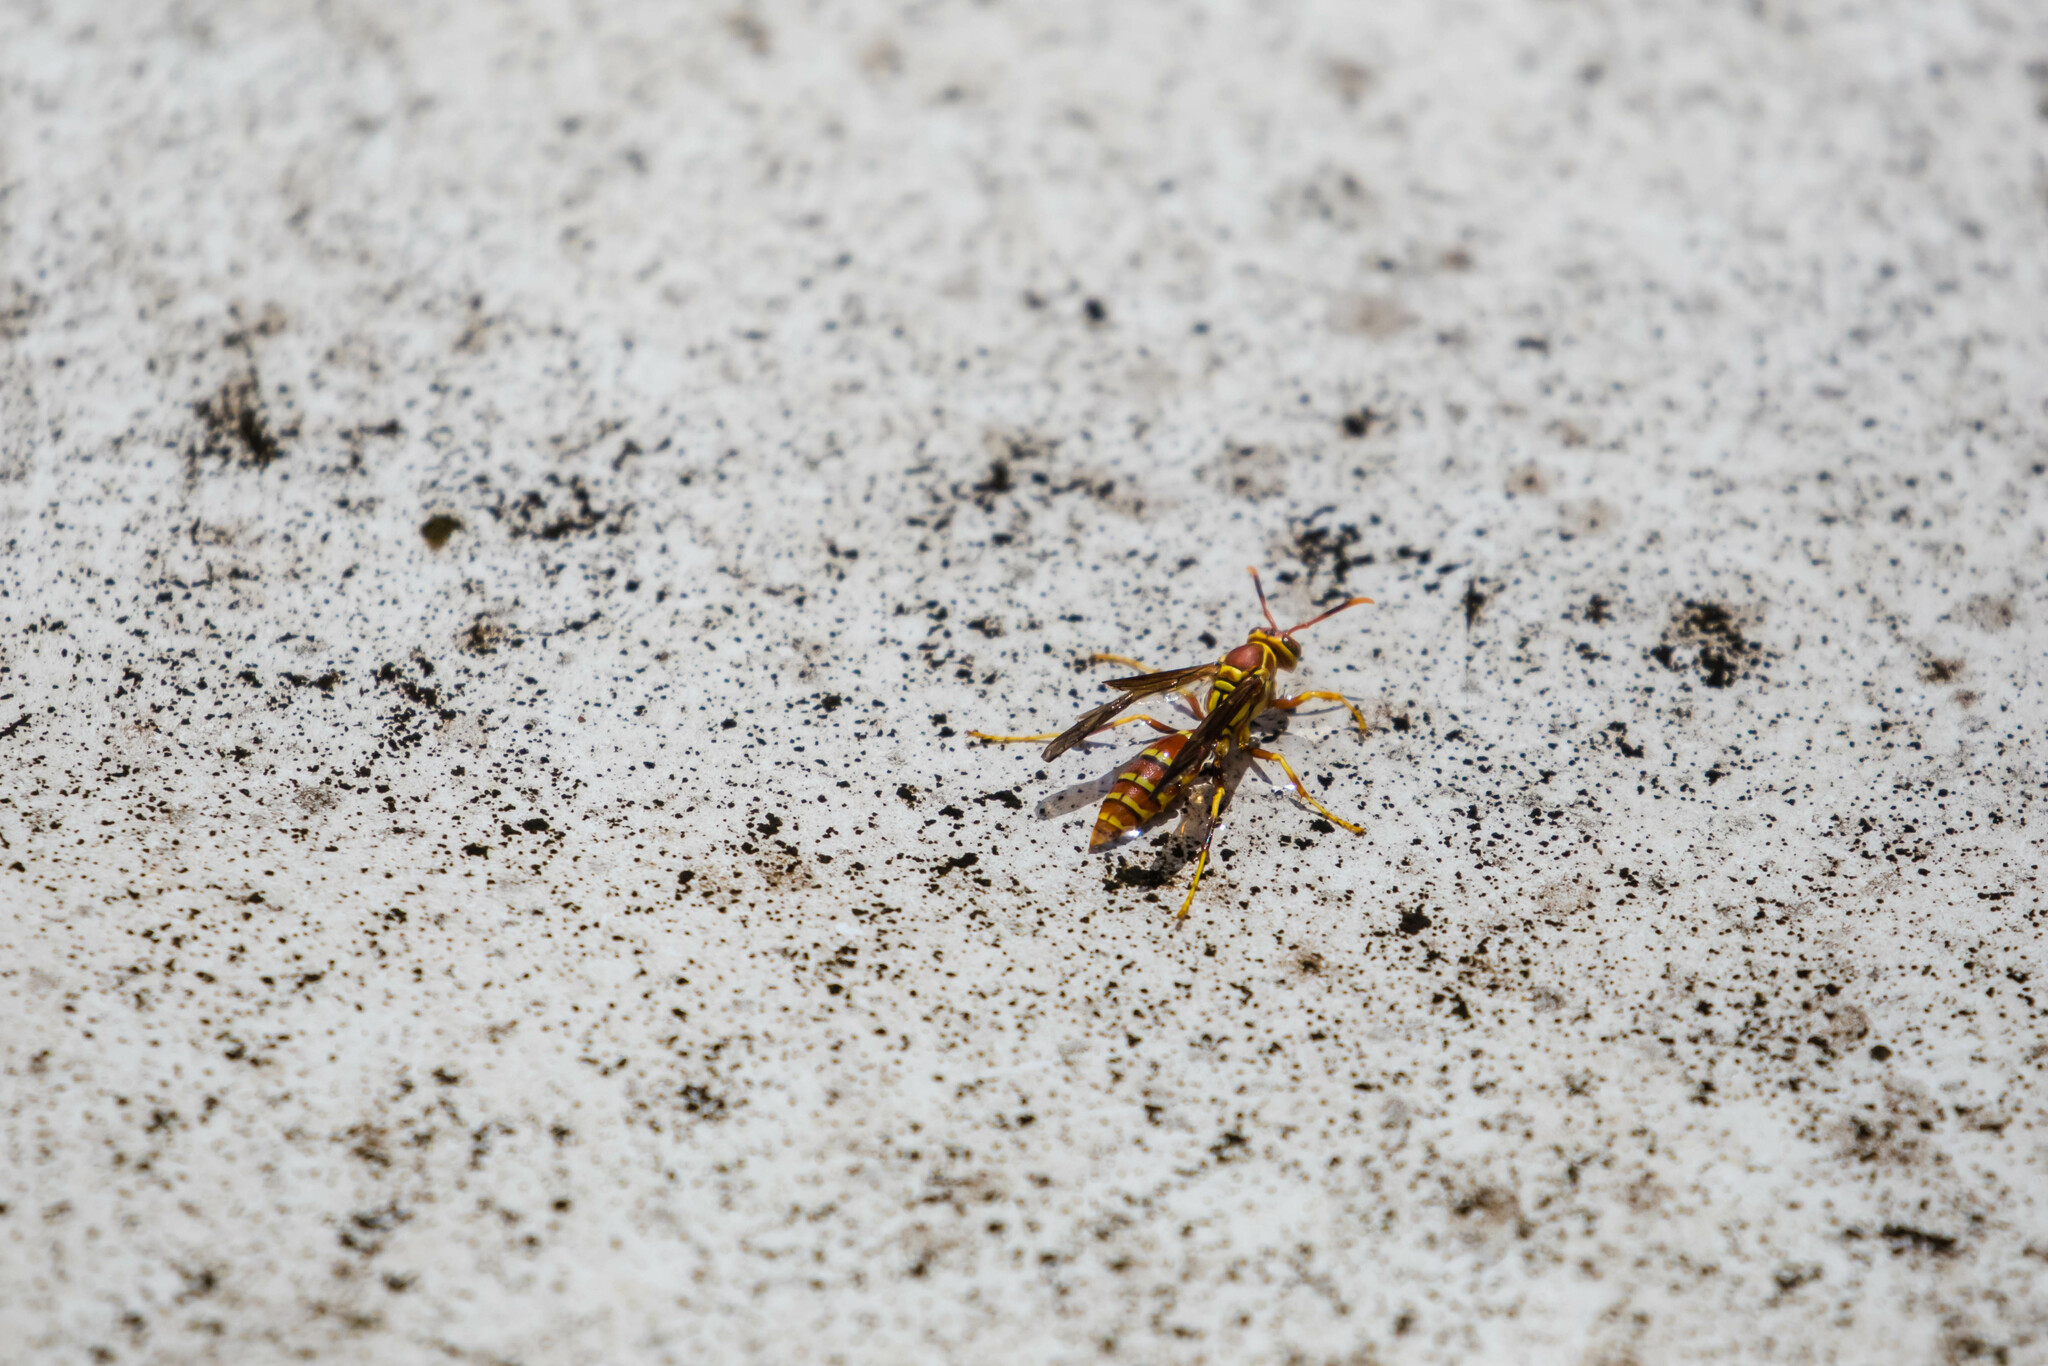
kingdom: Animalia
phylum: Arthropoda
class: Insecta
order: Hymenoptera
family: Eumenidae
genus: Polistes
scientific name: Polistes exclamans
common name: Paper wasp
